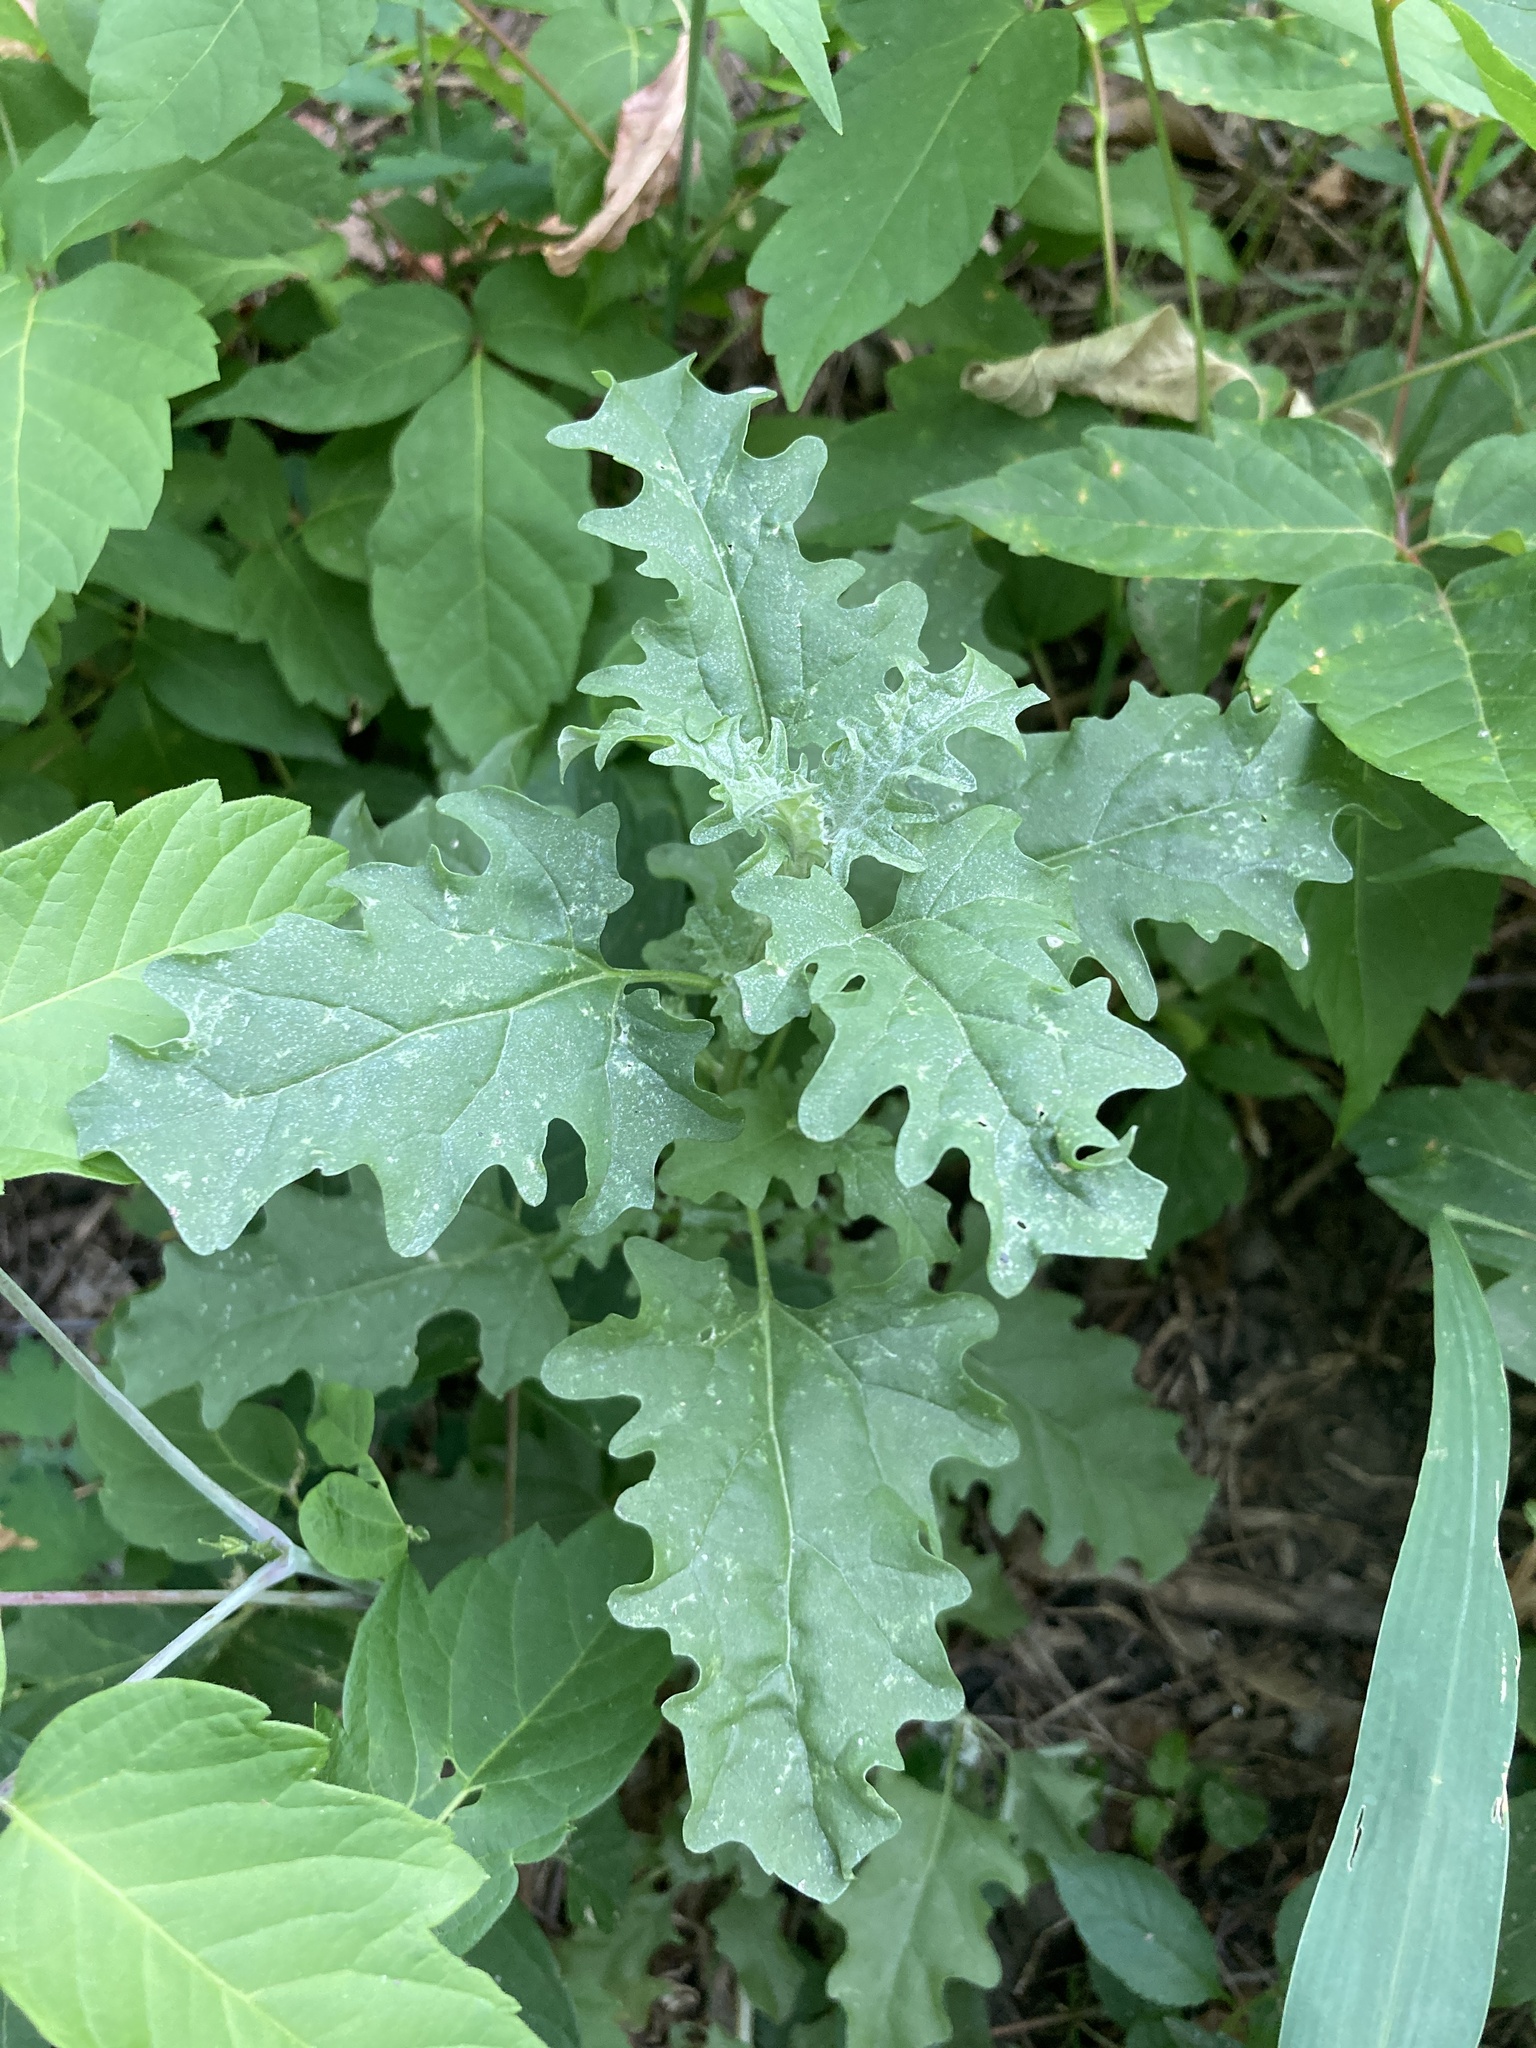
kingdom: Plantae
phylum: Tracheophyta
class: Magnoliopsida
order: Caryophyllales
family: Amaranthaceae
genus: Atriplex
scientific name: Atriplex tatarica
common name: Tatarian orache
